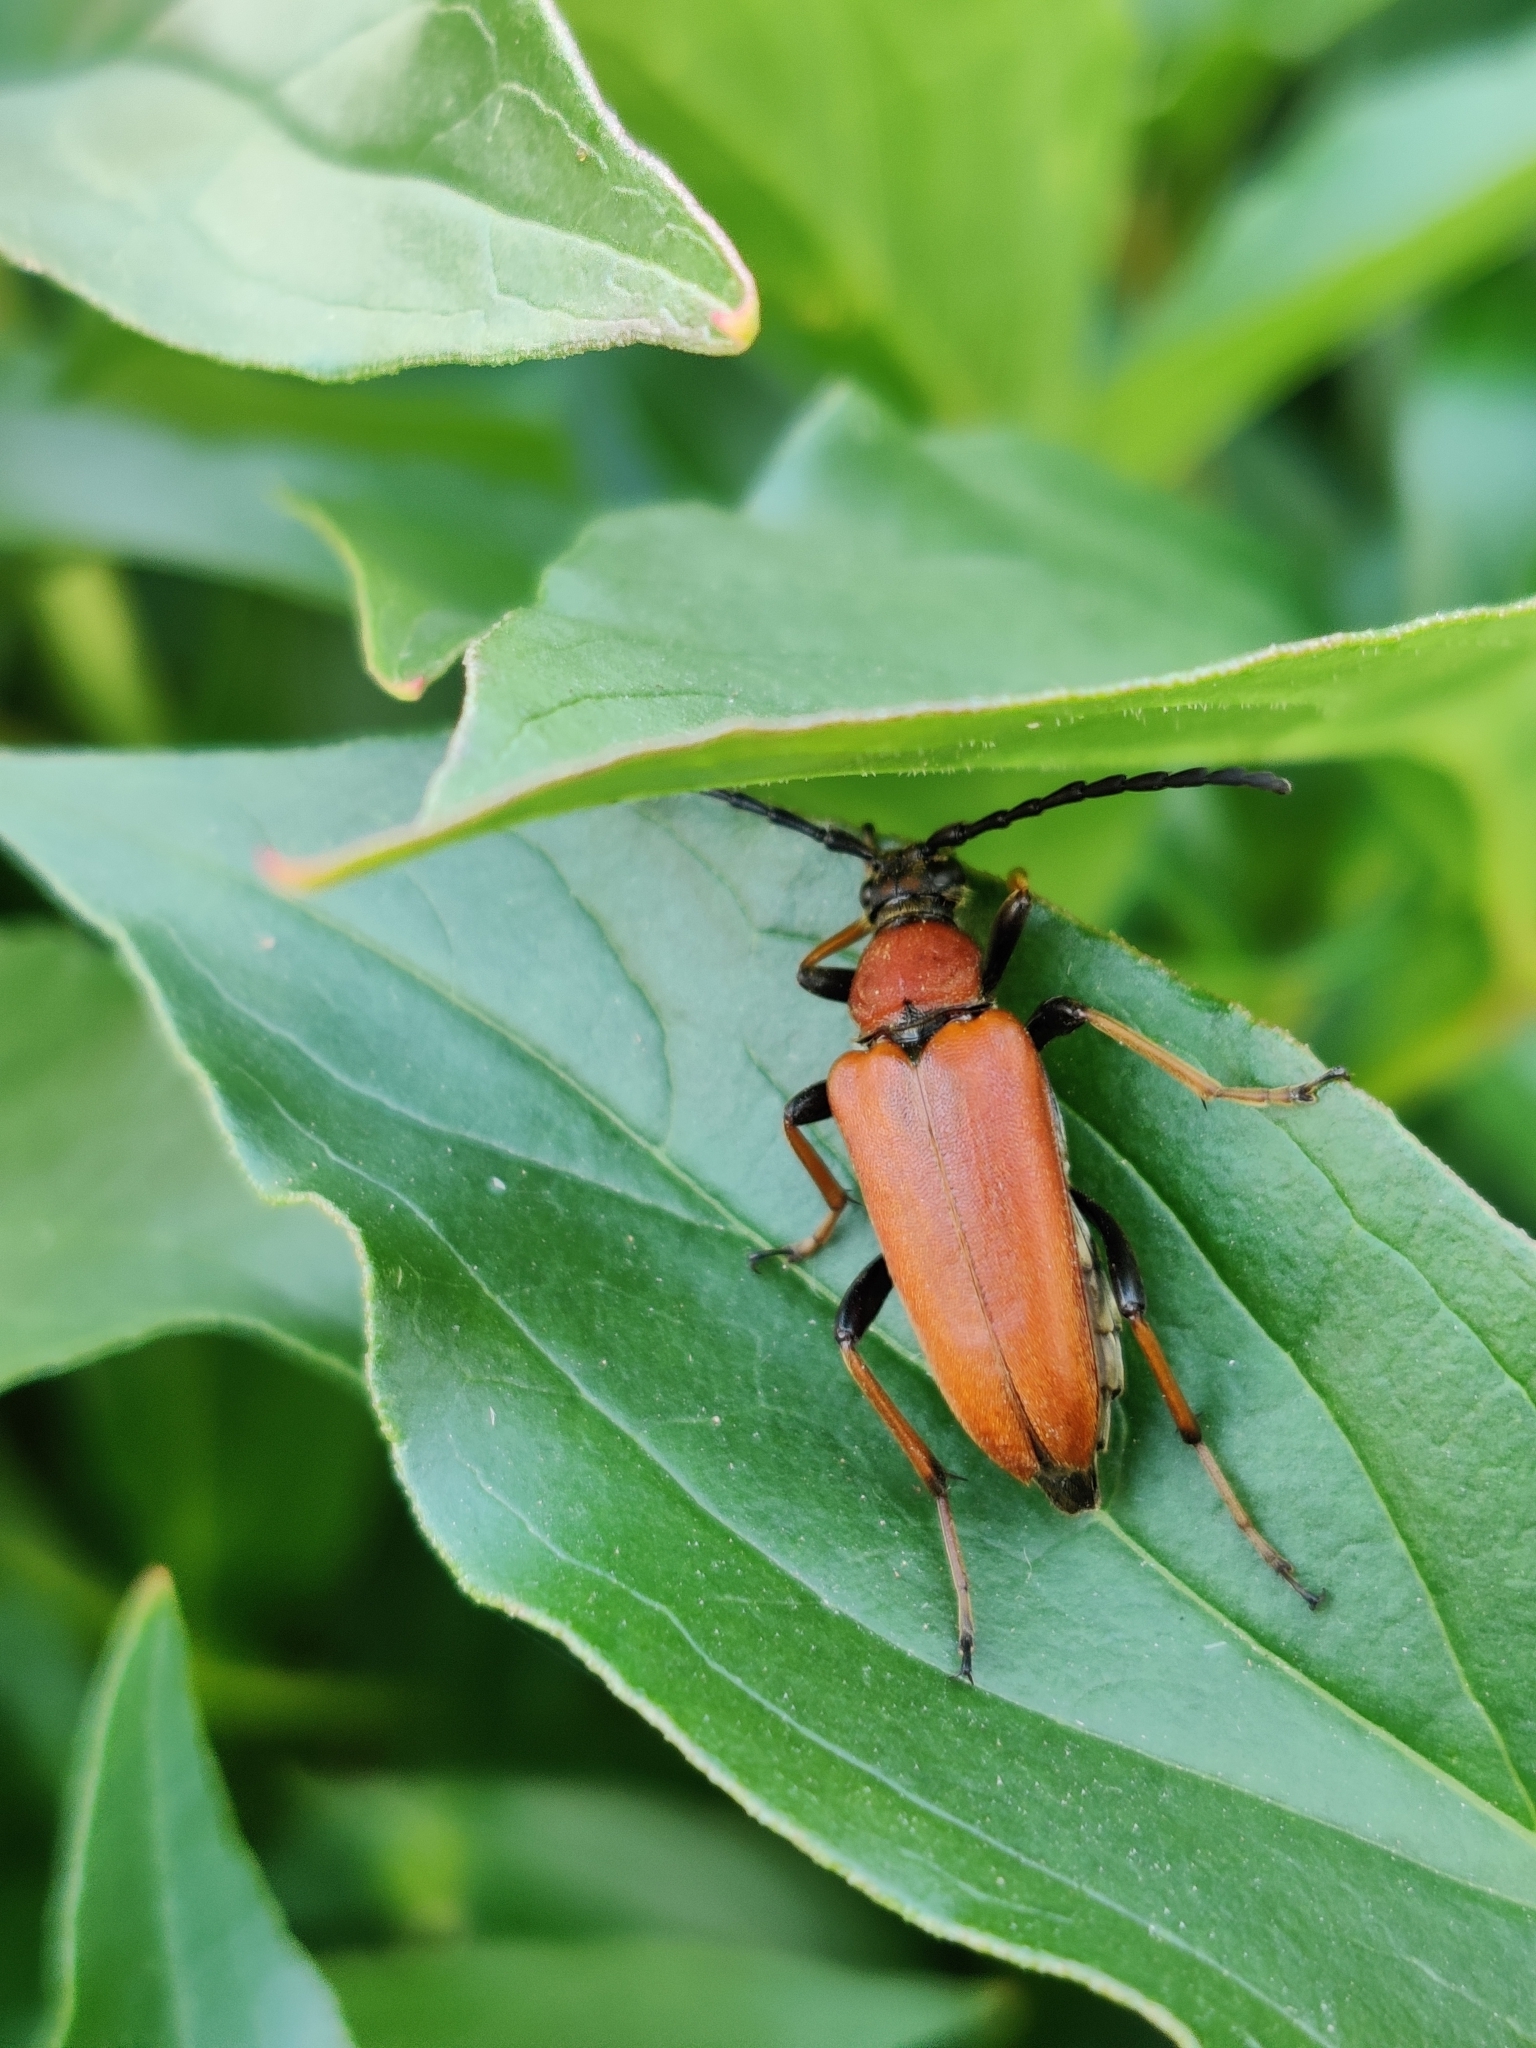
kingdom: Animalia
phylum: Arthropoda
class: Insecta
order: Coleoptera
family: Cerambycidae
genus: Stictoleptura
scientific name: Stictoleptura rubra
